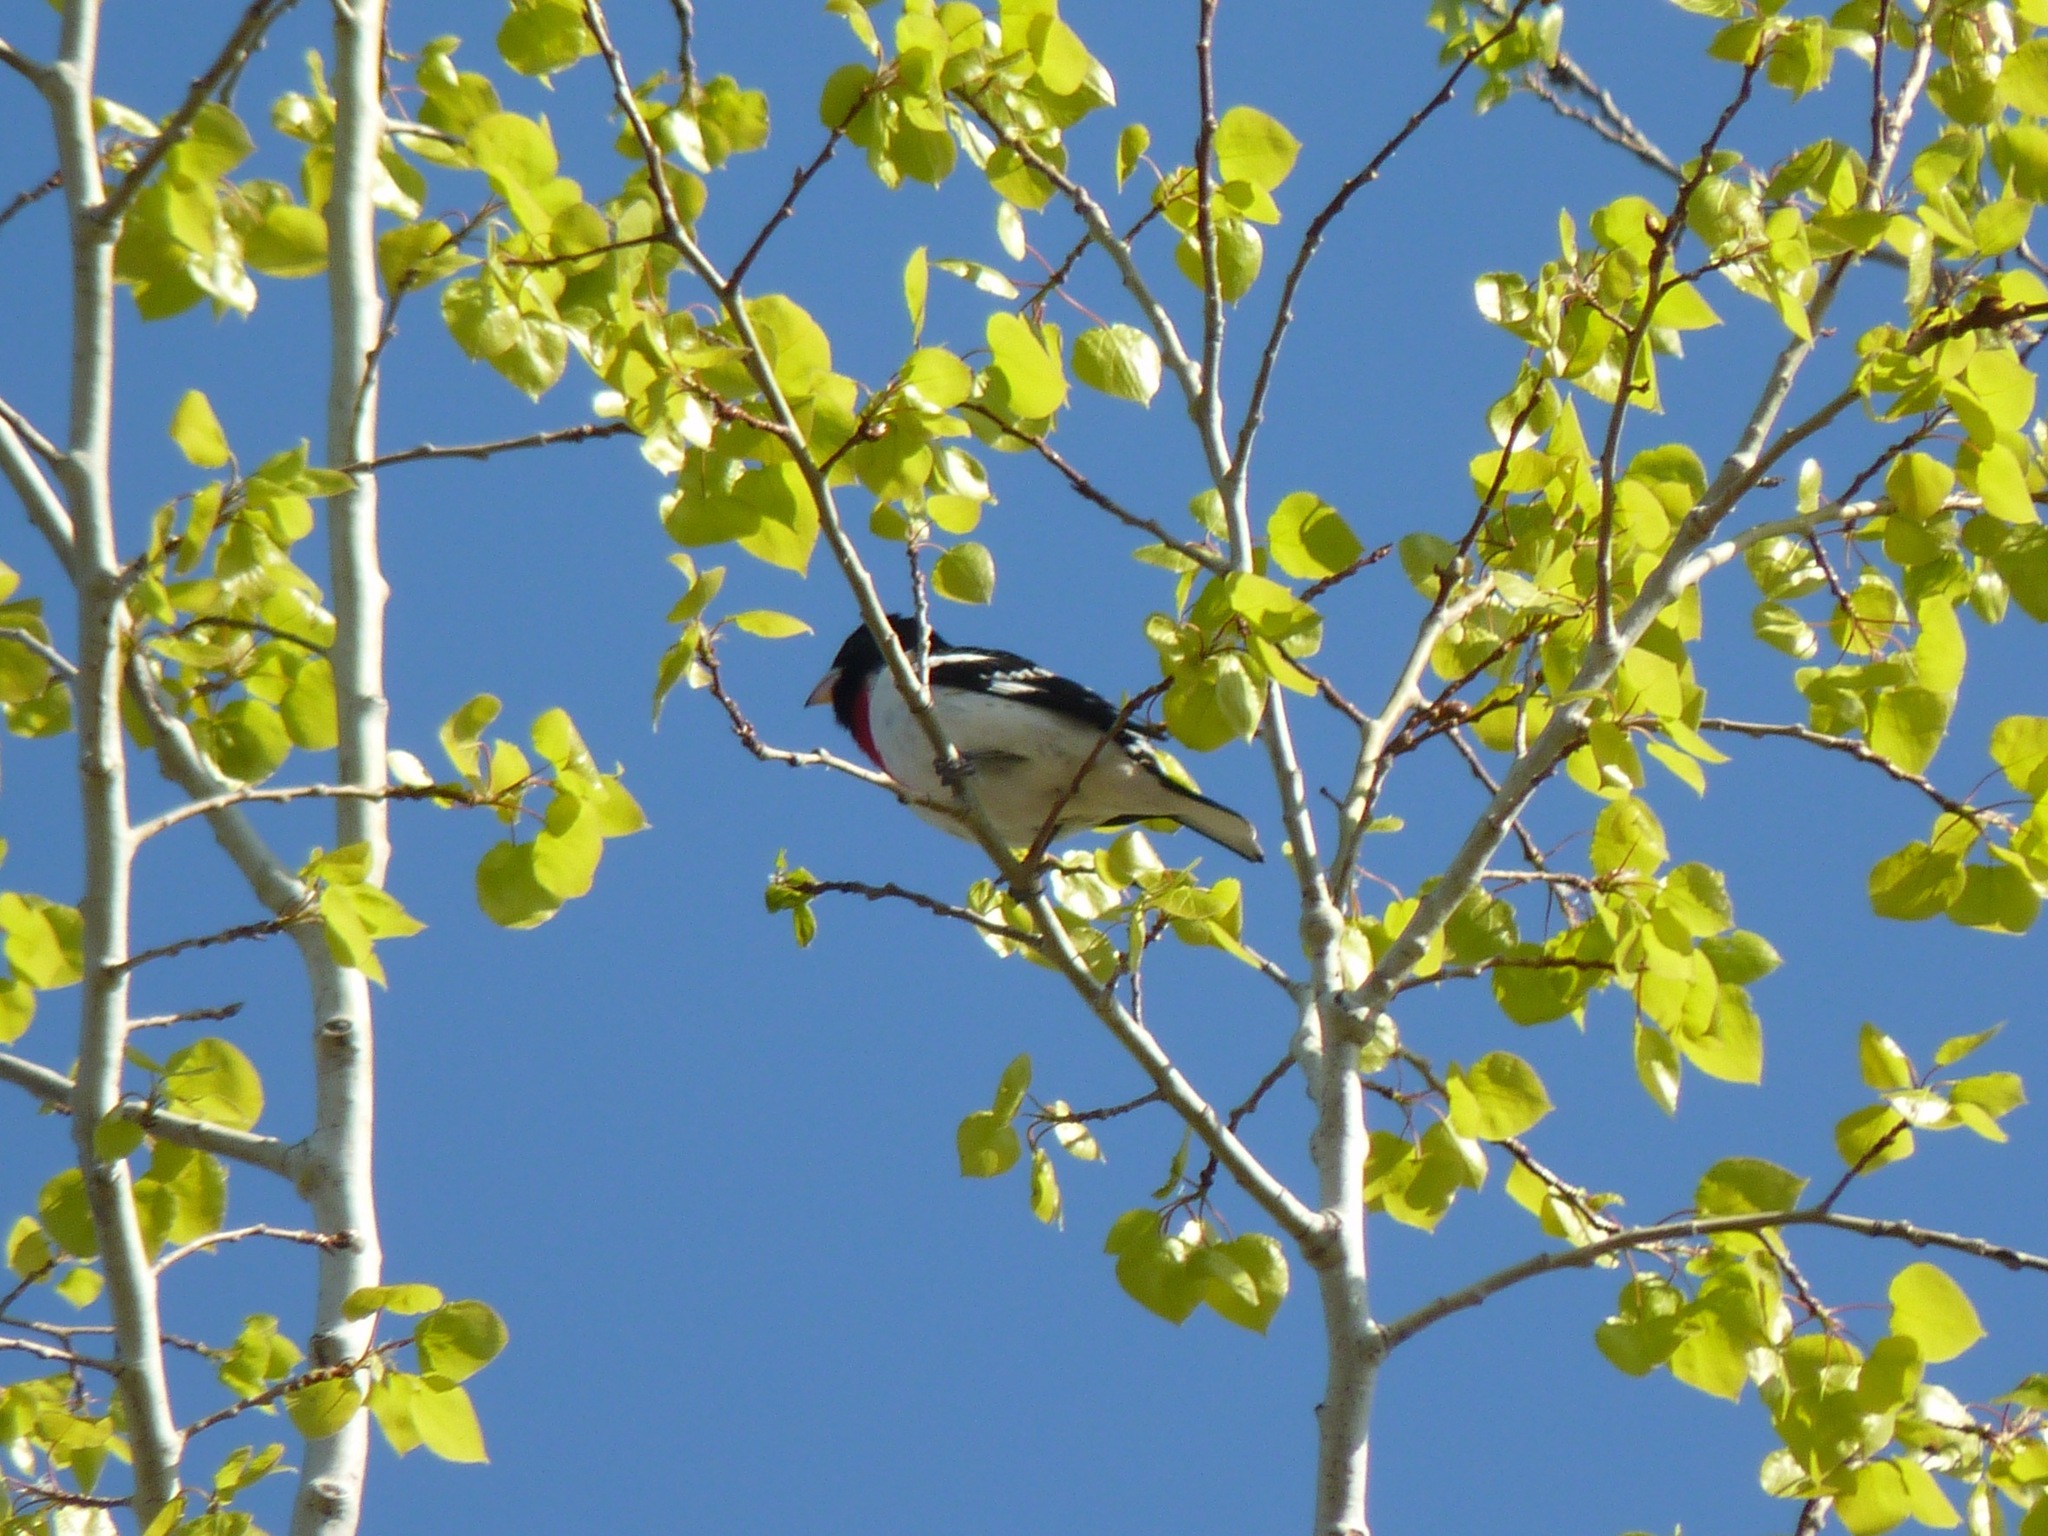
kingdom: Animalia
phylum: Chordata
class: Aves
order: Passeriformes
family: Cardinalidae
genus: Pheucticus
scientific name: Pheucticus ludovicianus
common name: Rose-breasted grosbeak
